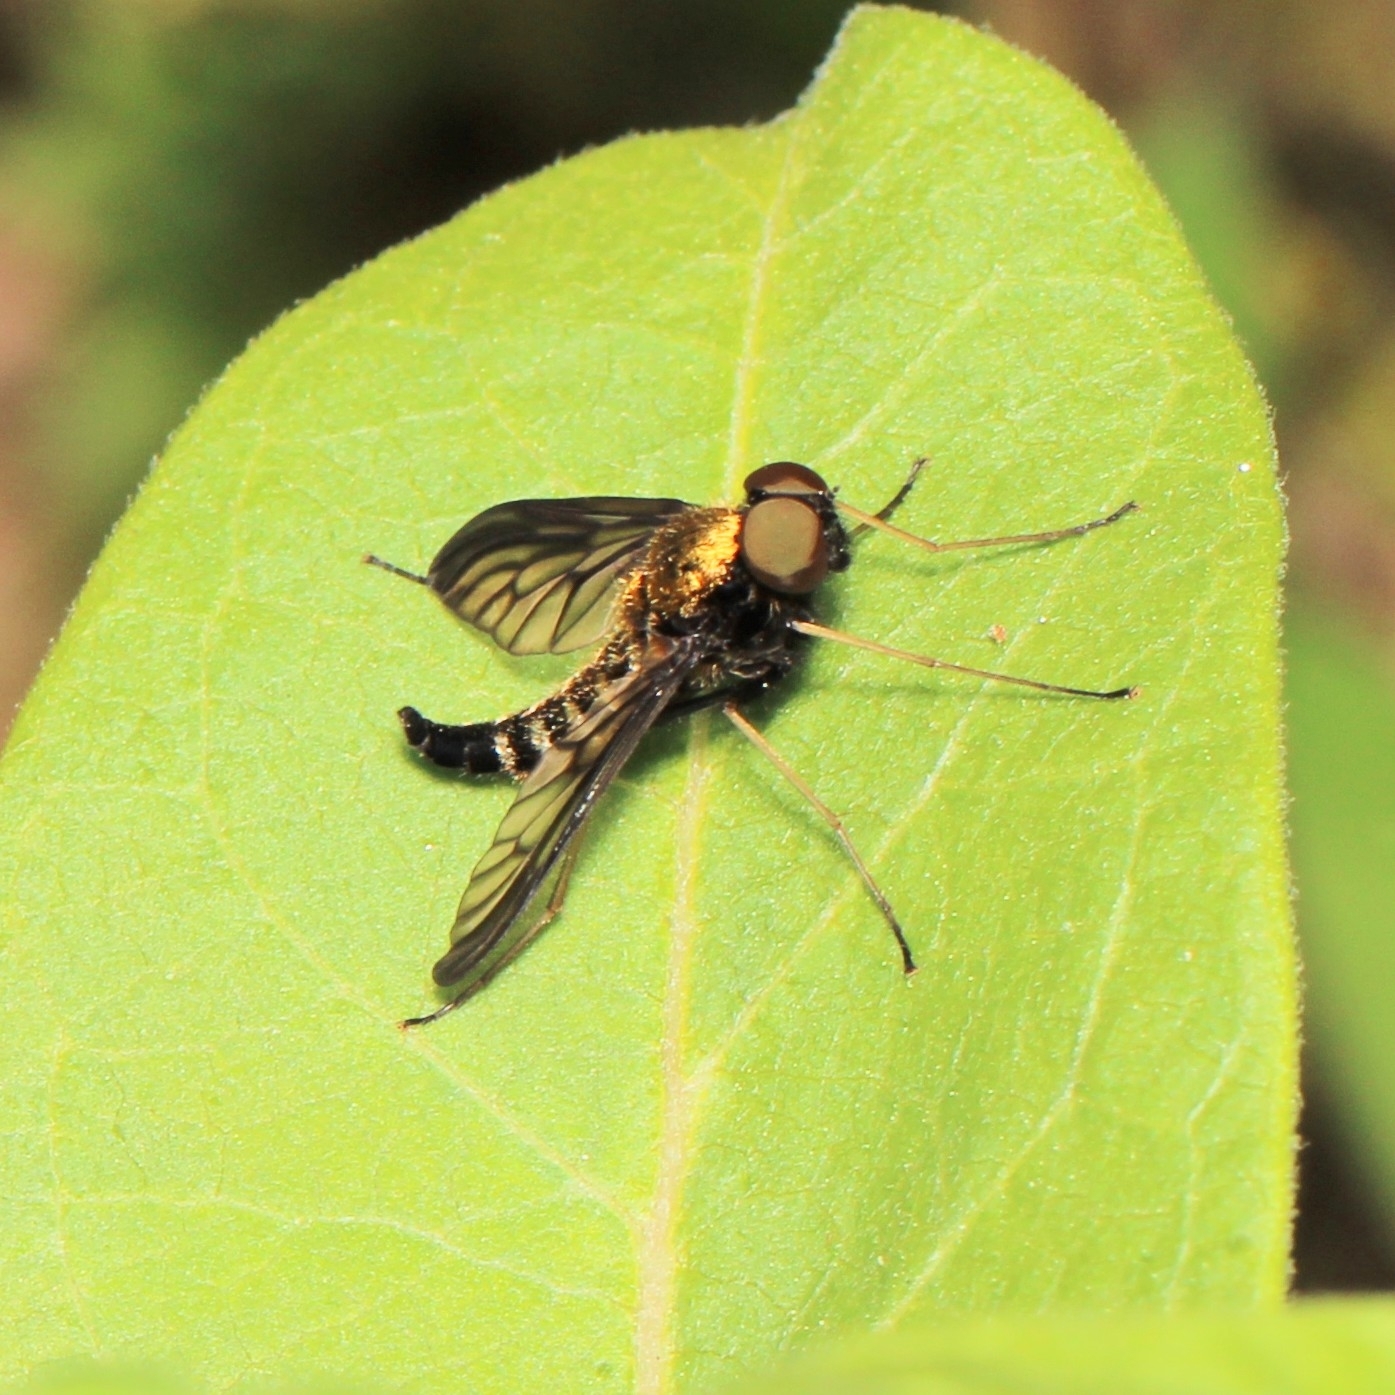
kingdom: Animalia
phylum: Arthropoda
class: Insecta
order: Diptera
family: Rhagionidae
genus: Chrysopilus
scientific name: Chrysopilus thoracicus
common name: Golden-backed snipe fly
